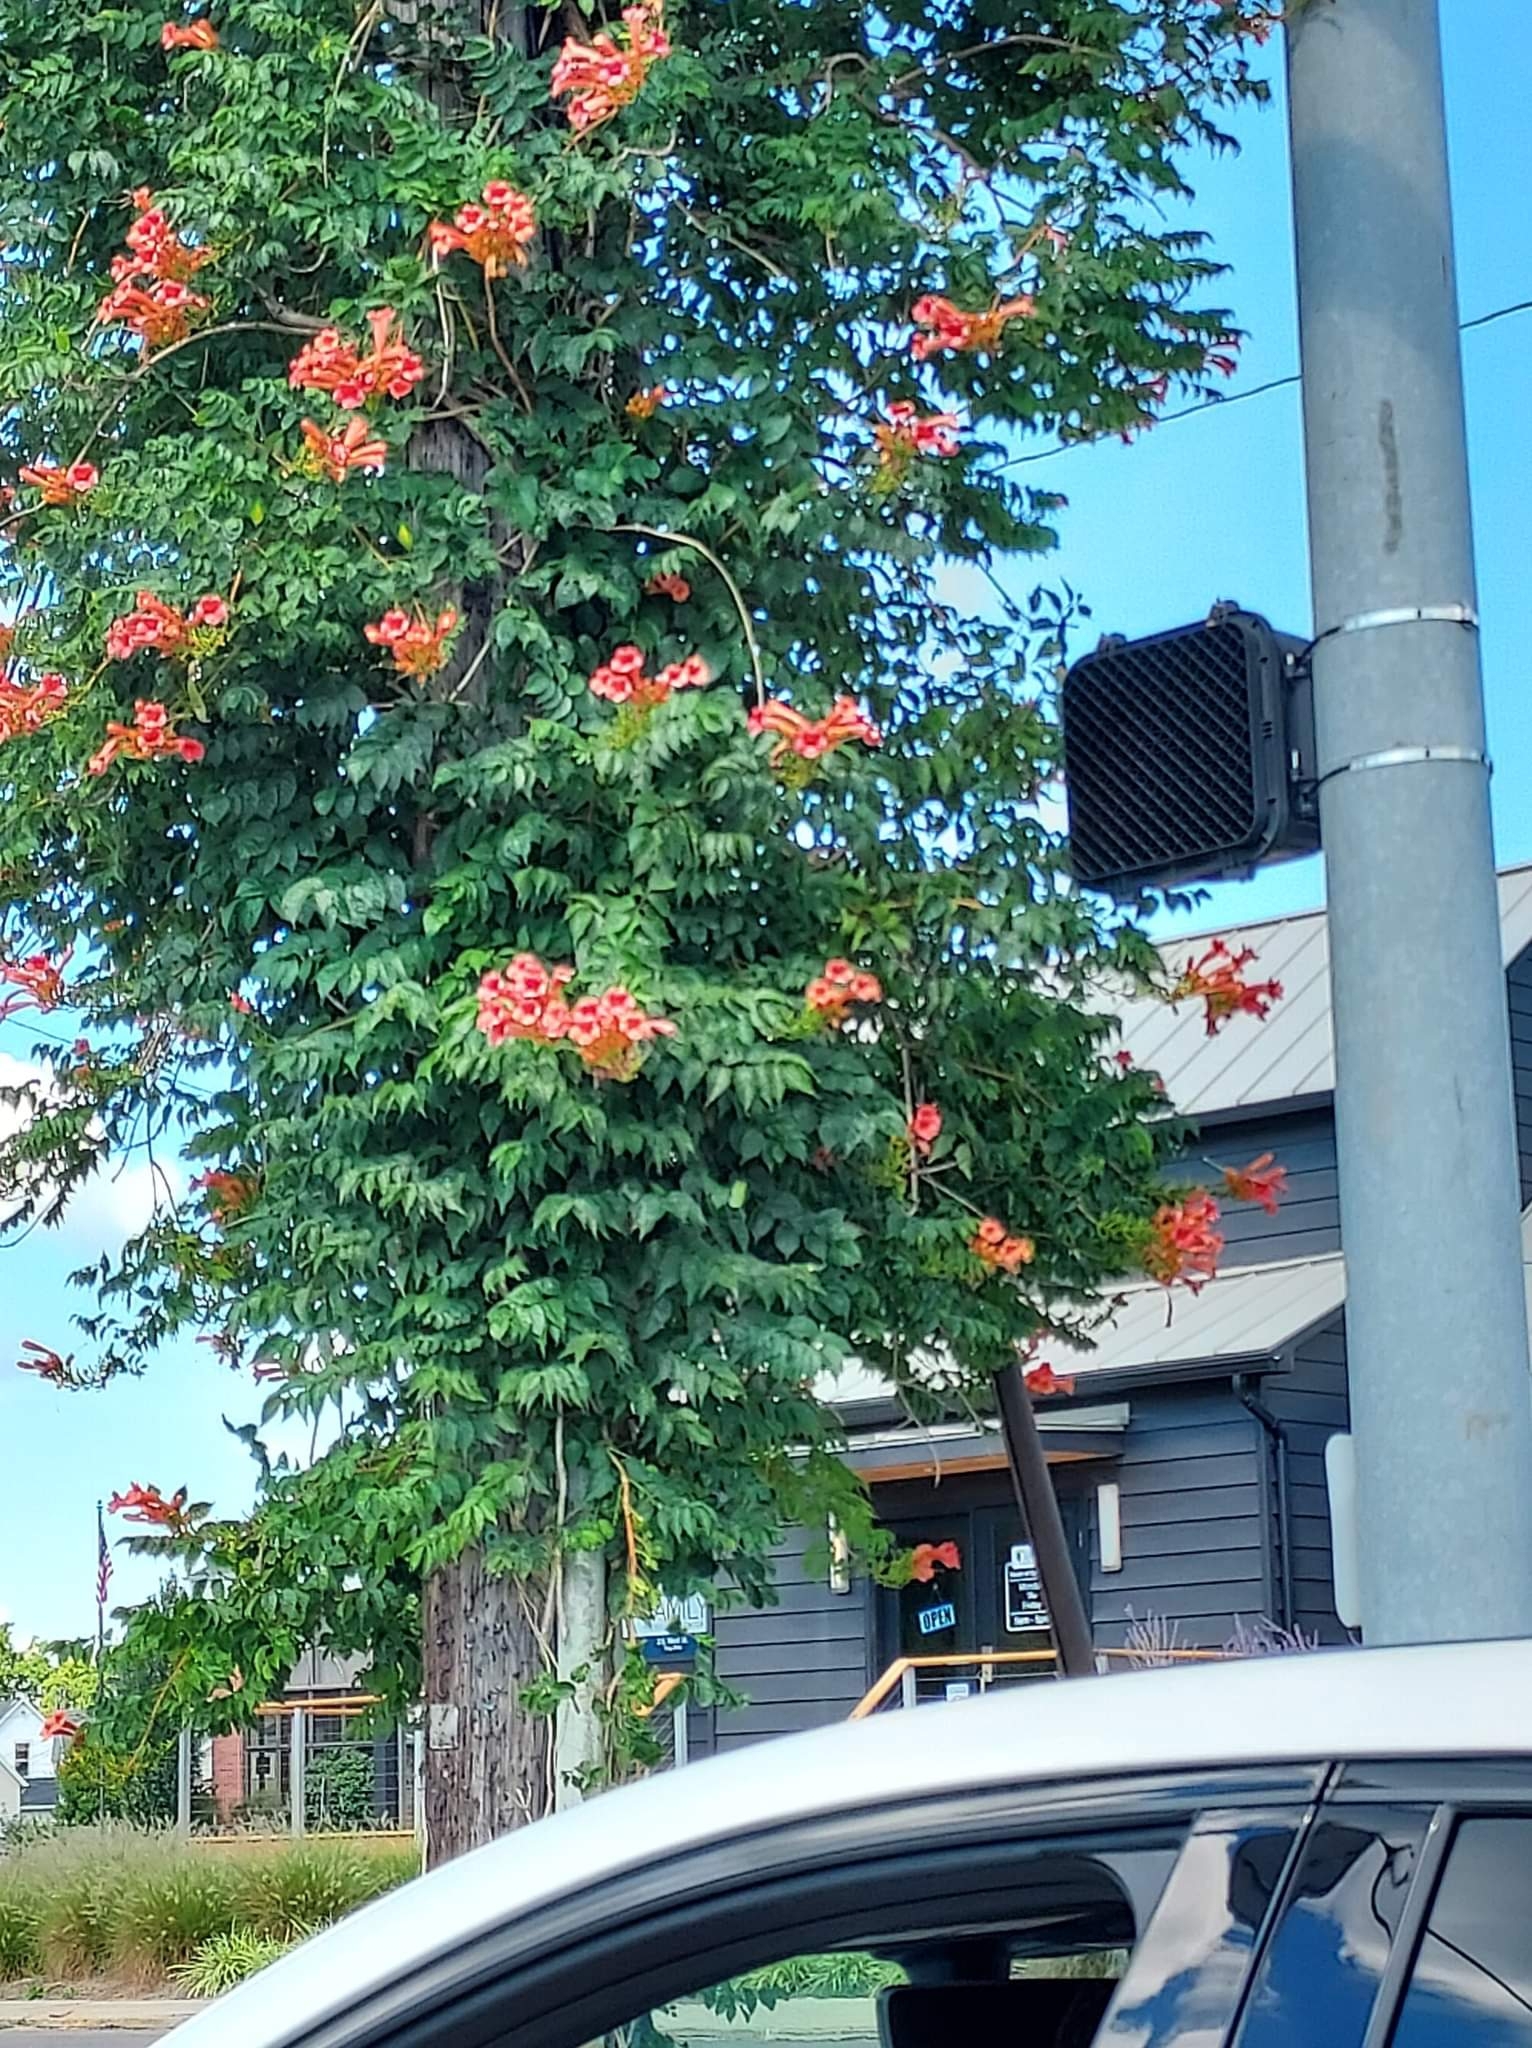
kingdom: Plantae
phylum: Tracheophyta
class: Magnoliopsida
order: Lamiales
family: Bignoniaceae
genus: Campsis
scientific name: Campsis radicans
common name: Trumpet-creeper
